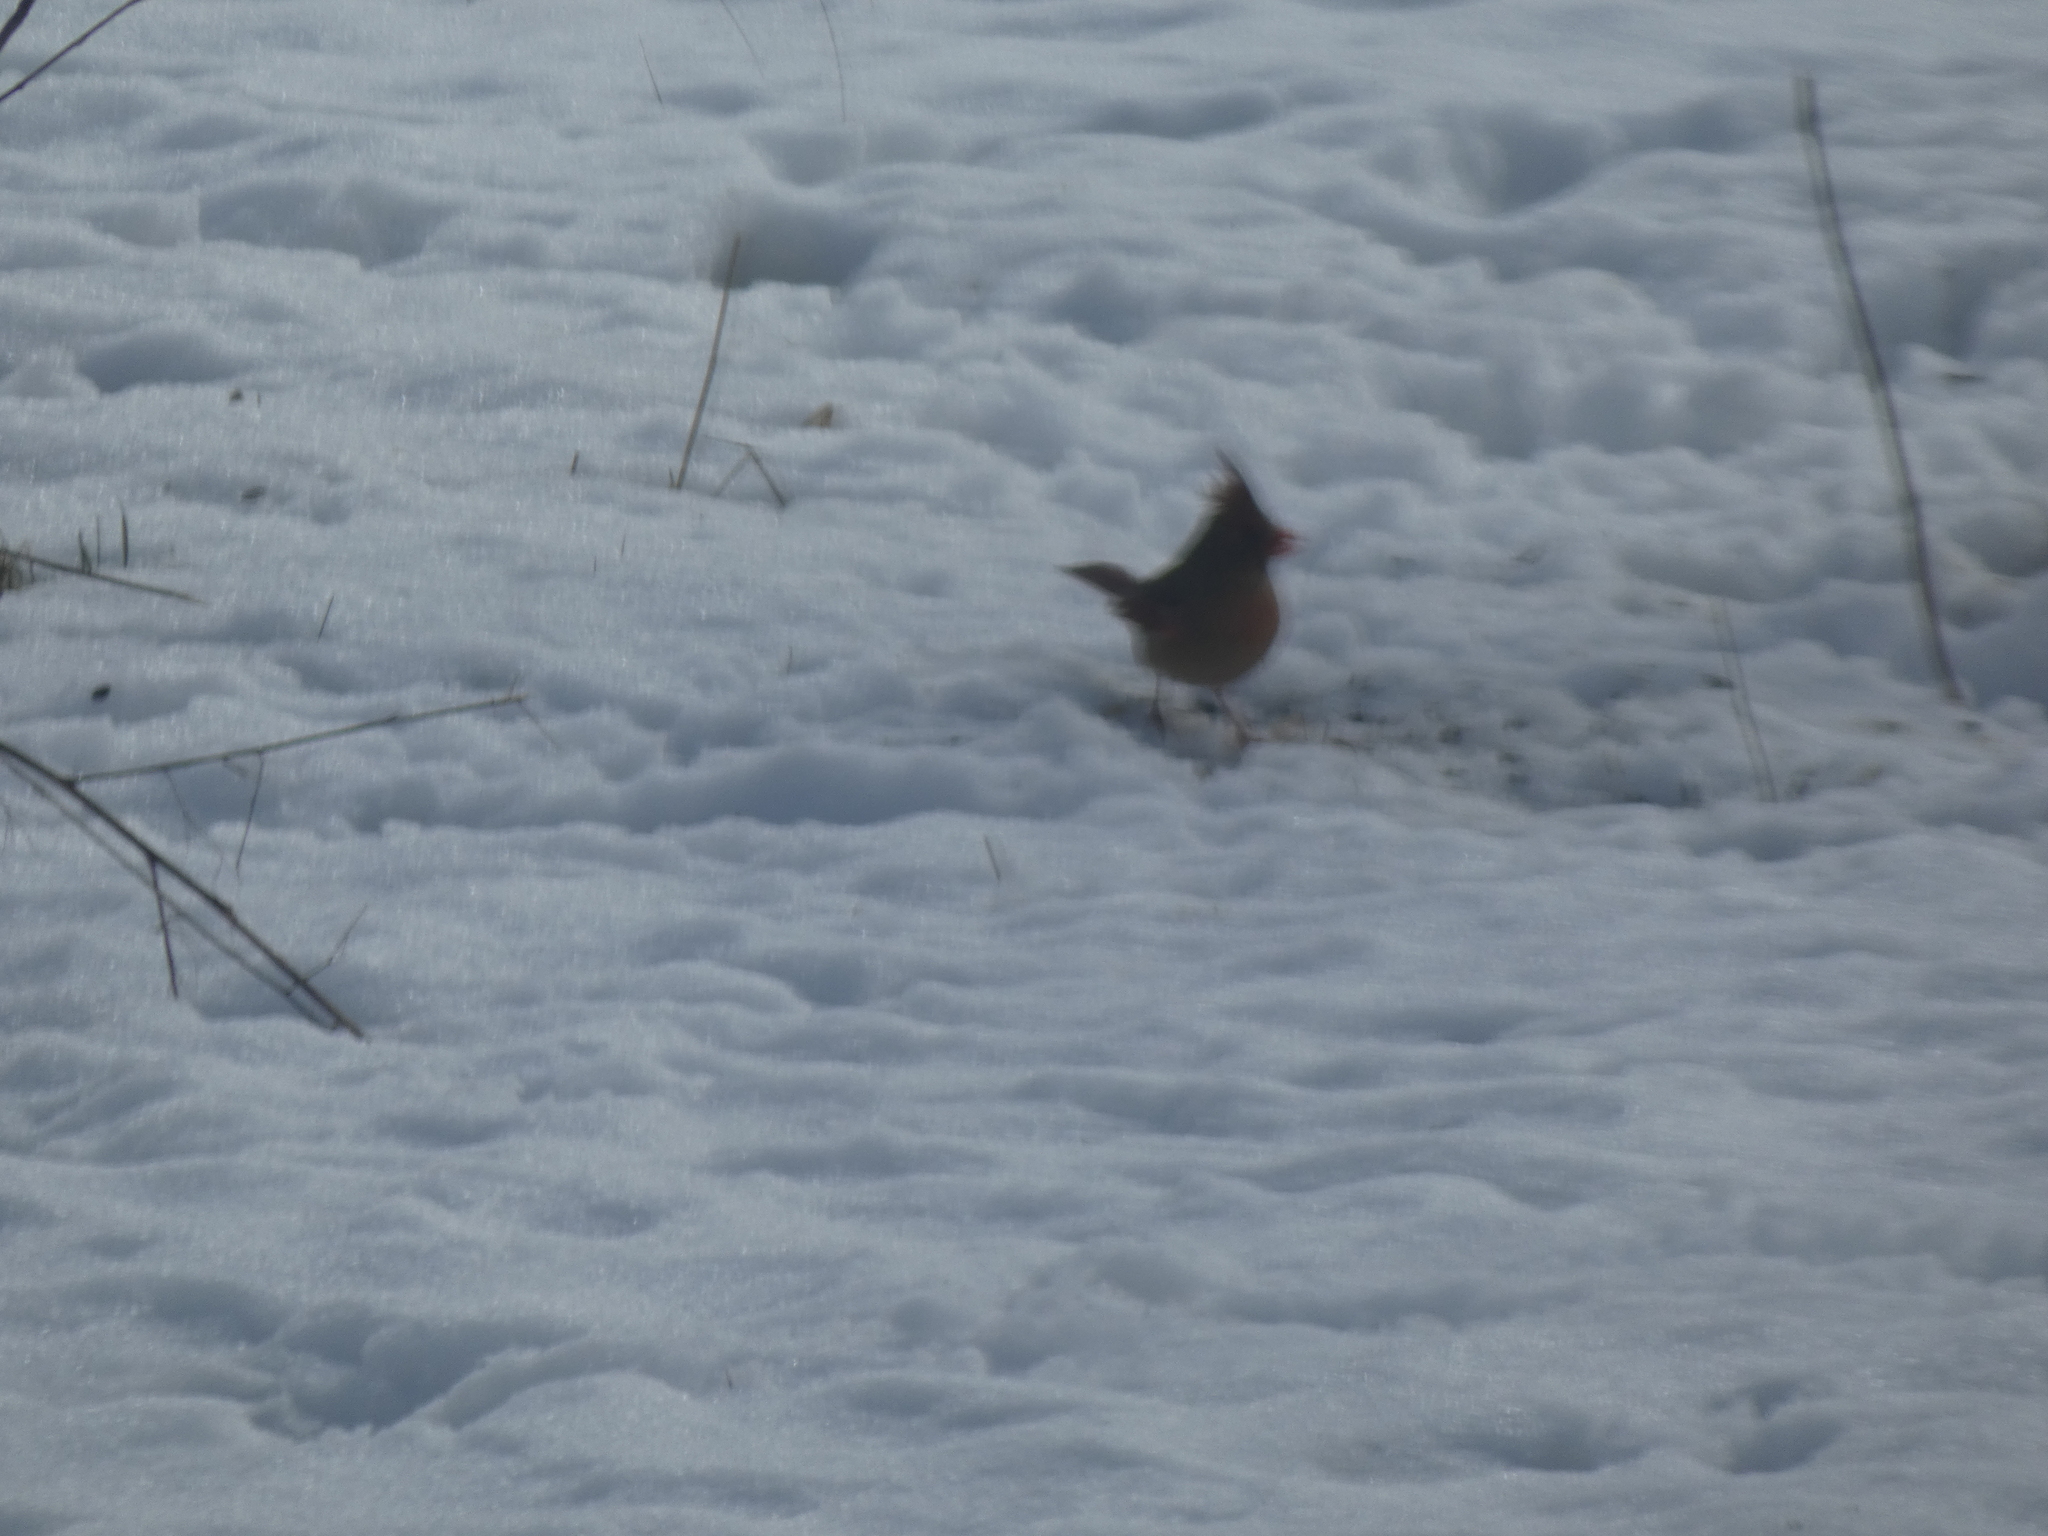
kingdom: Animalia
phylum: Chordata
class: Aves
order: Passeriformes
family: Cardinalidae
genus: Cardinalis
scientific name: Cardinalis cardinalis
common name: Northern cardinal
